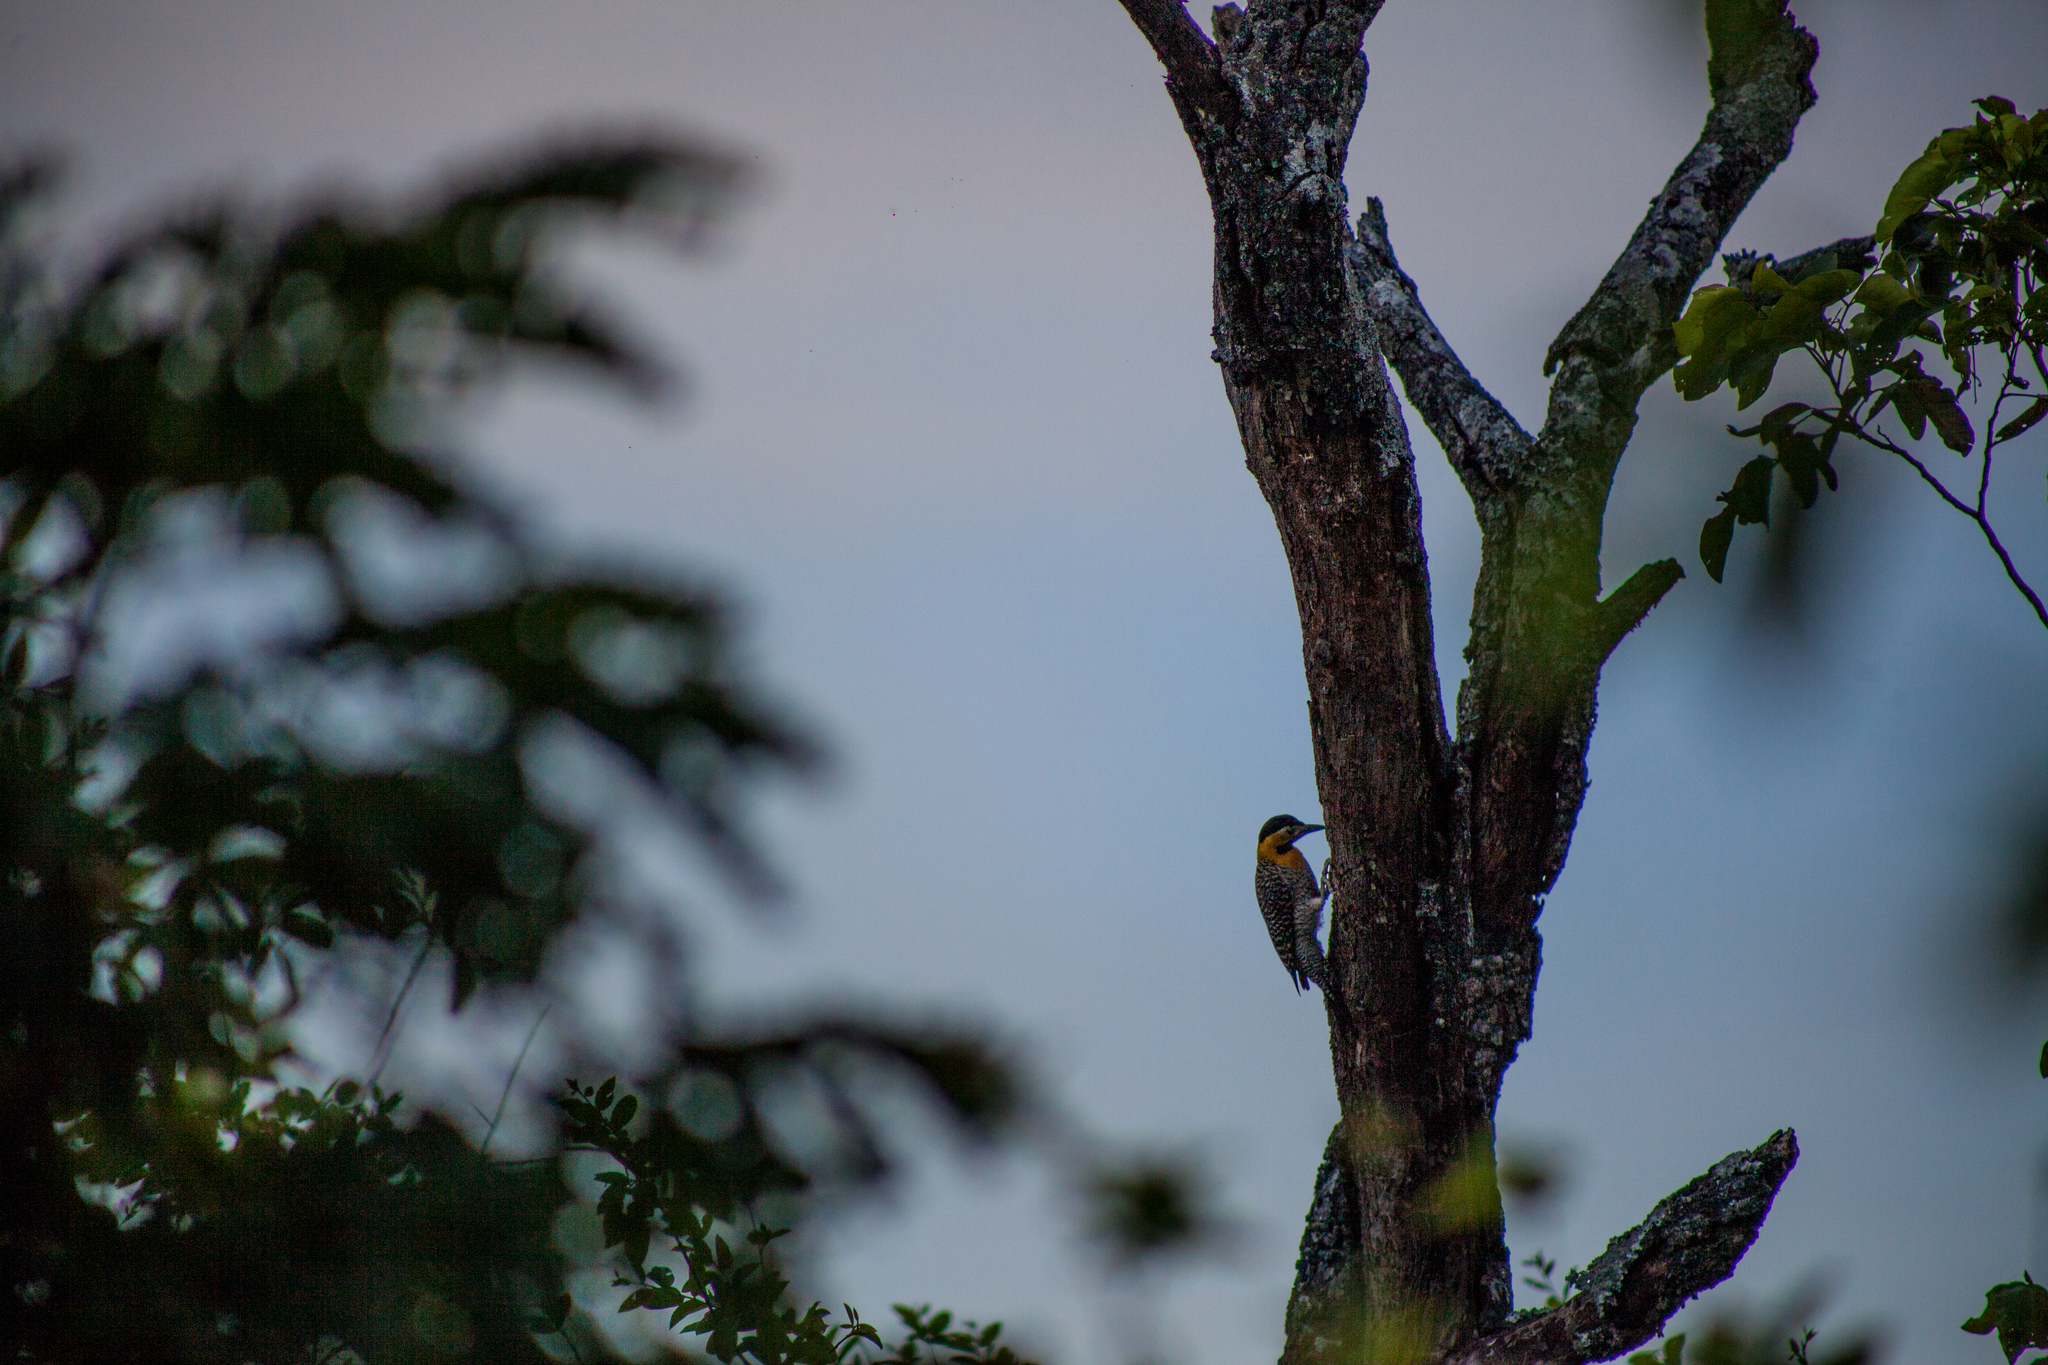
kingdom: Animalia
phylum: Chordata
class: Aves
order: Piciformes
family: Picidae
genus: Colaptes
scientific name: Colaptes campestris
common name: Campo flicker
